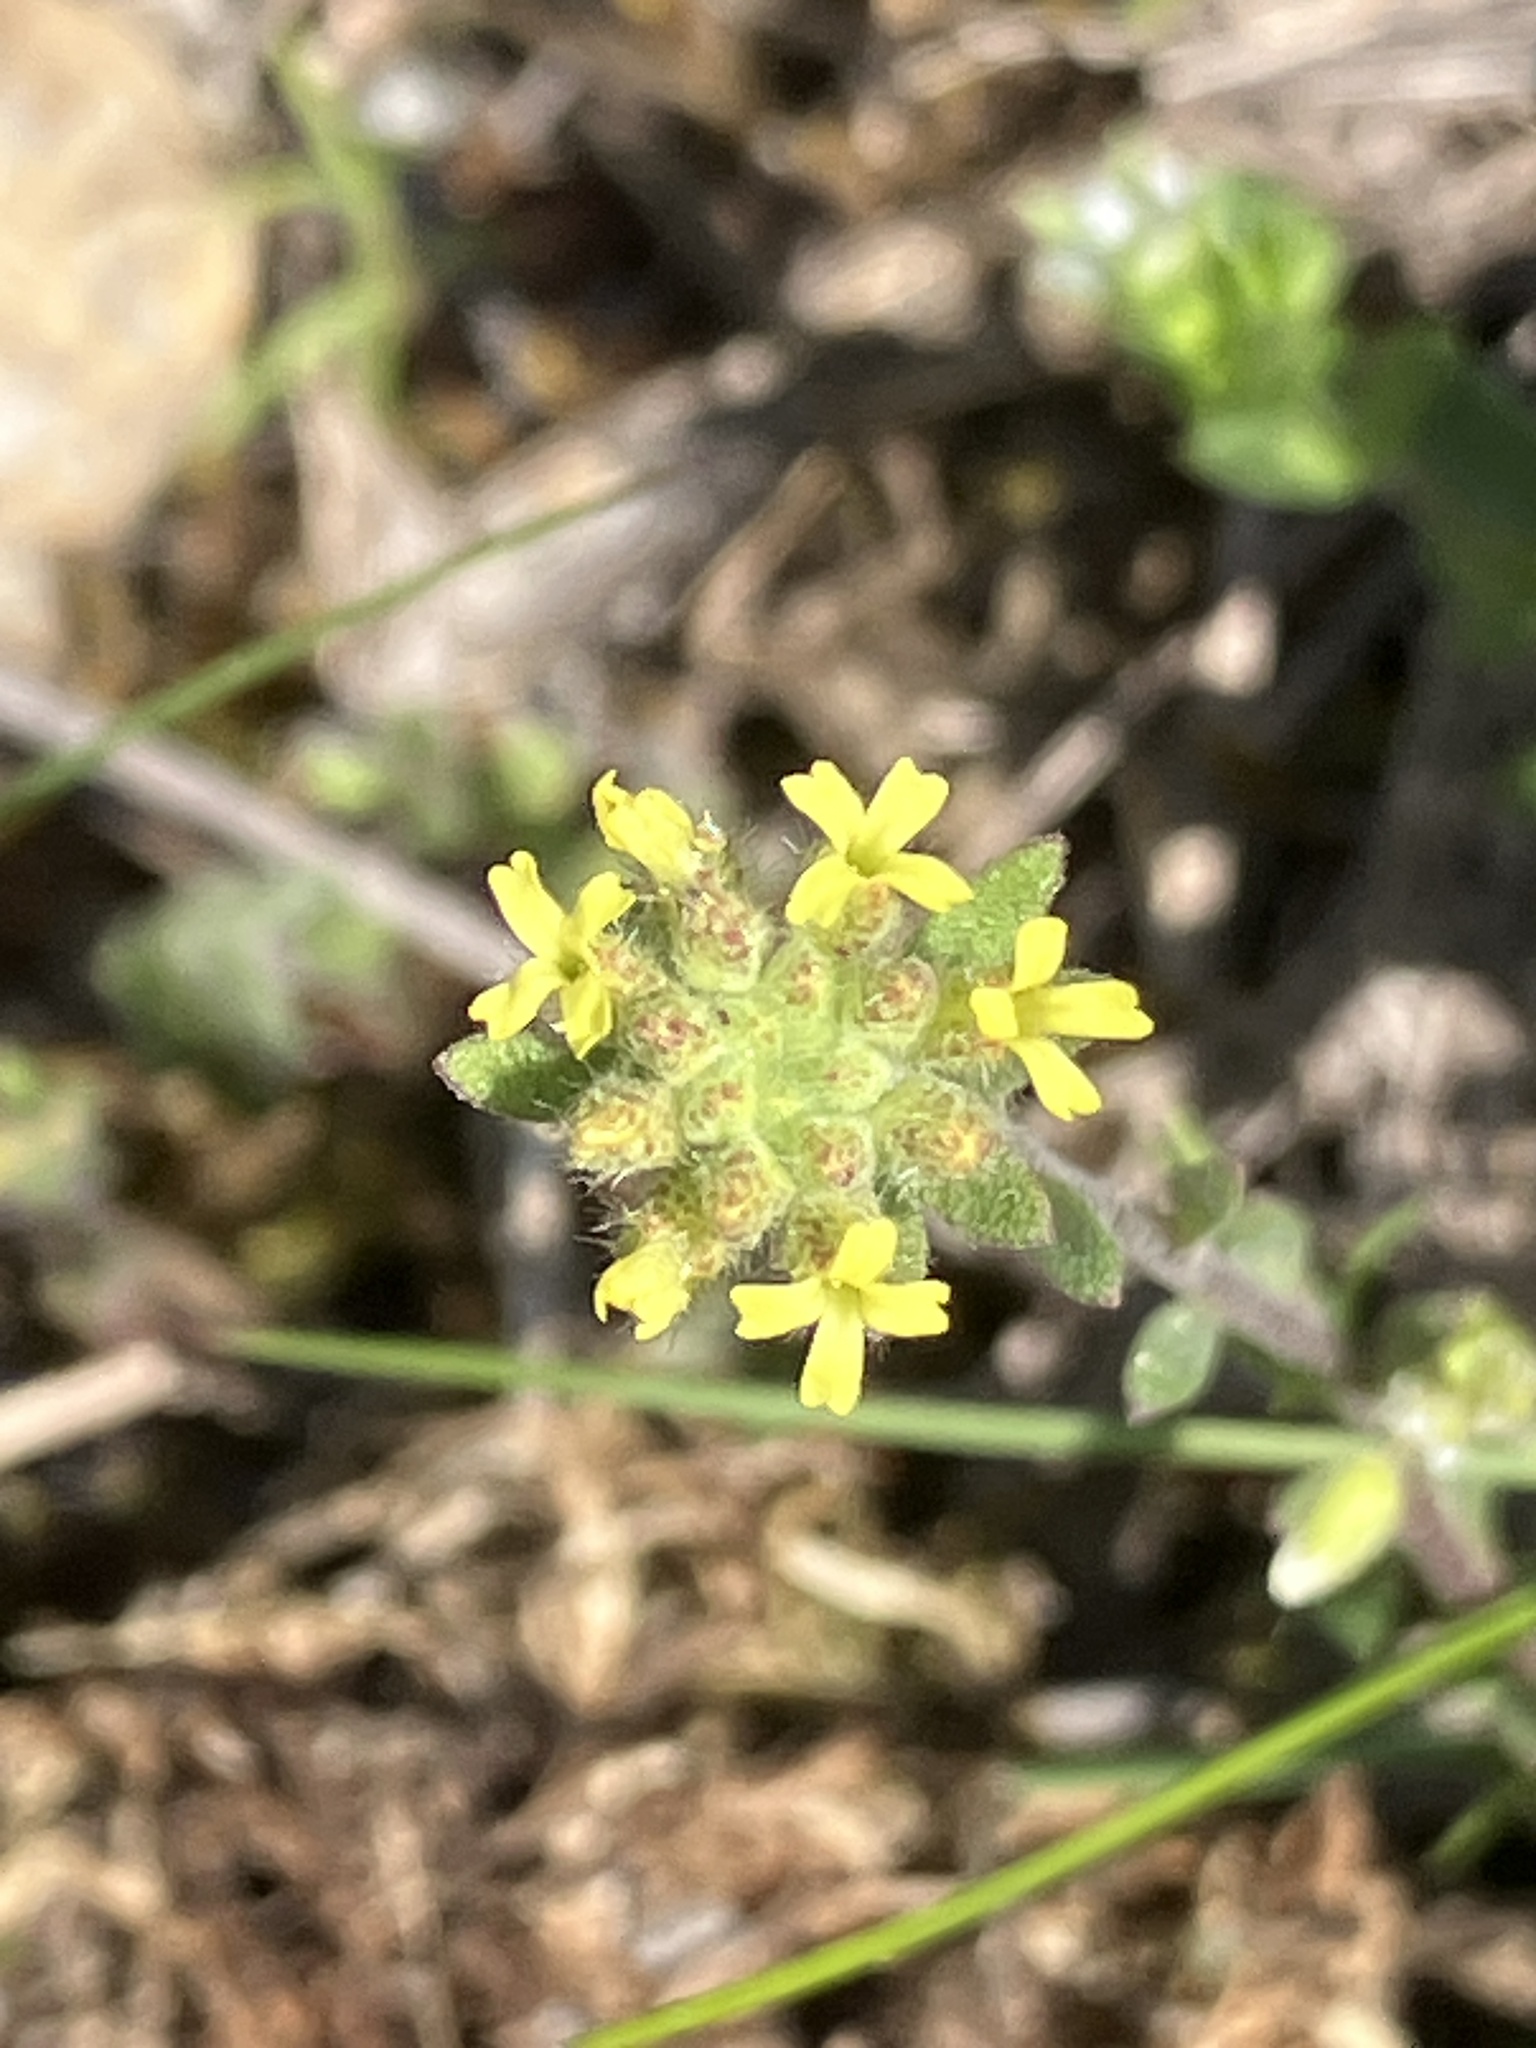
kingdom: Plantae
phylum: Tracheophyta
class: Magnoliopsida
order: Brassicales
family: Brassicaceae
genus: Alyssum
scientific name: Alyssum alyssoides
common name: Small alison
